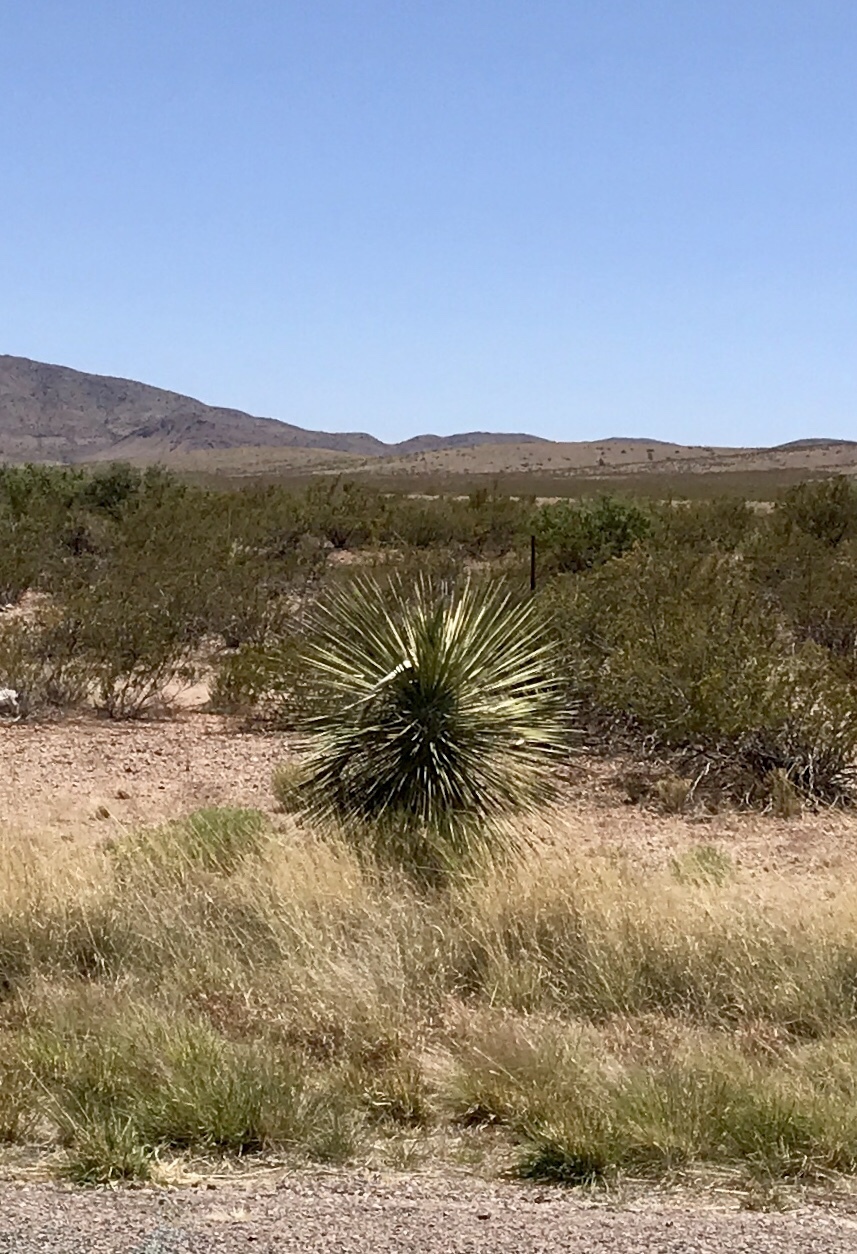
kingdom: Plantae
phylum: Tracheophyta
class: Liliopsida
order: Asparagales
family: Asparagaceae
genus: Yucca
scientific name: Yucca elata
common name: Palmella
